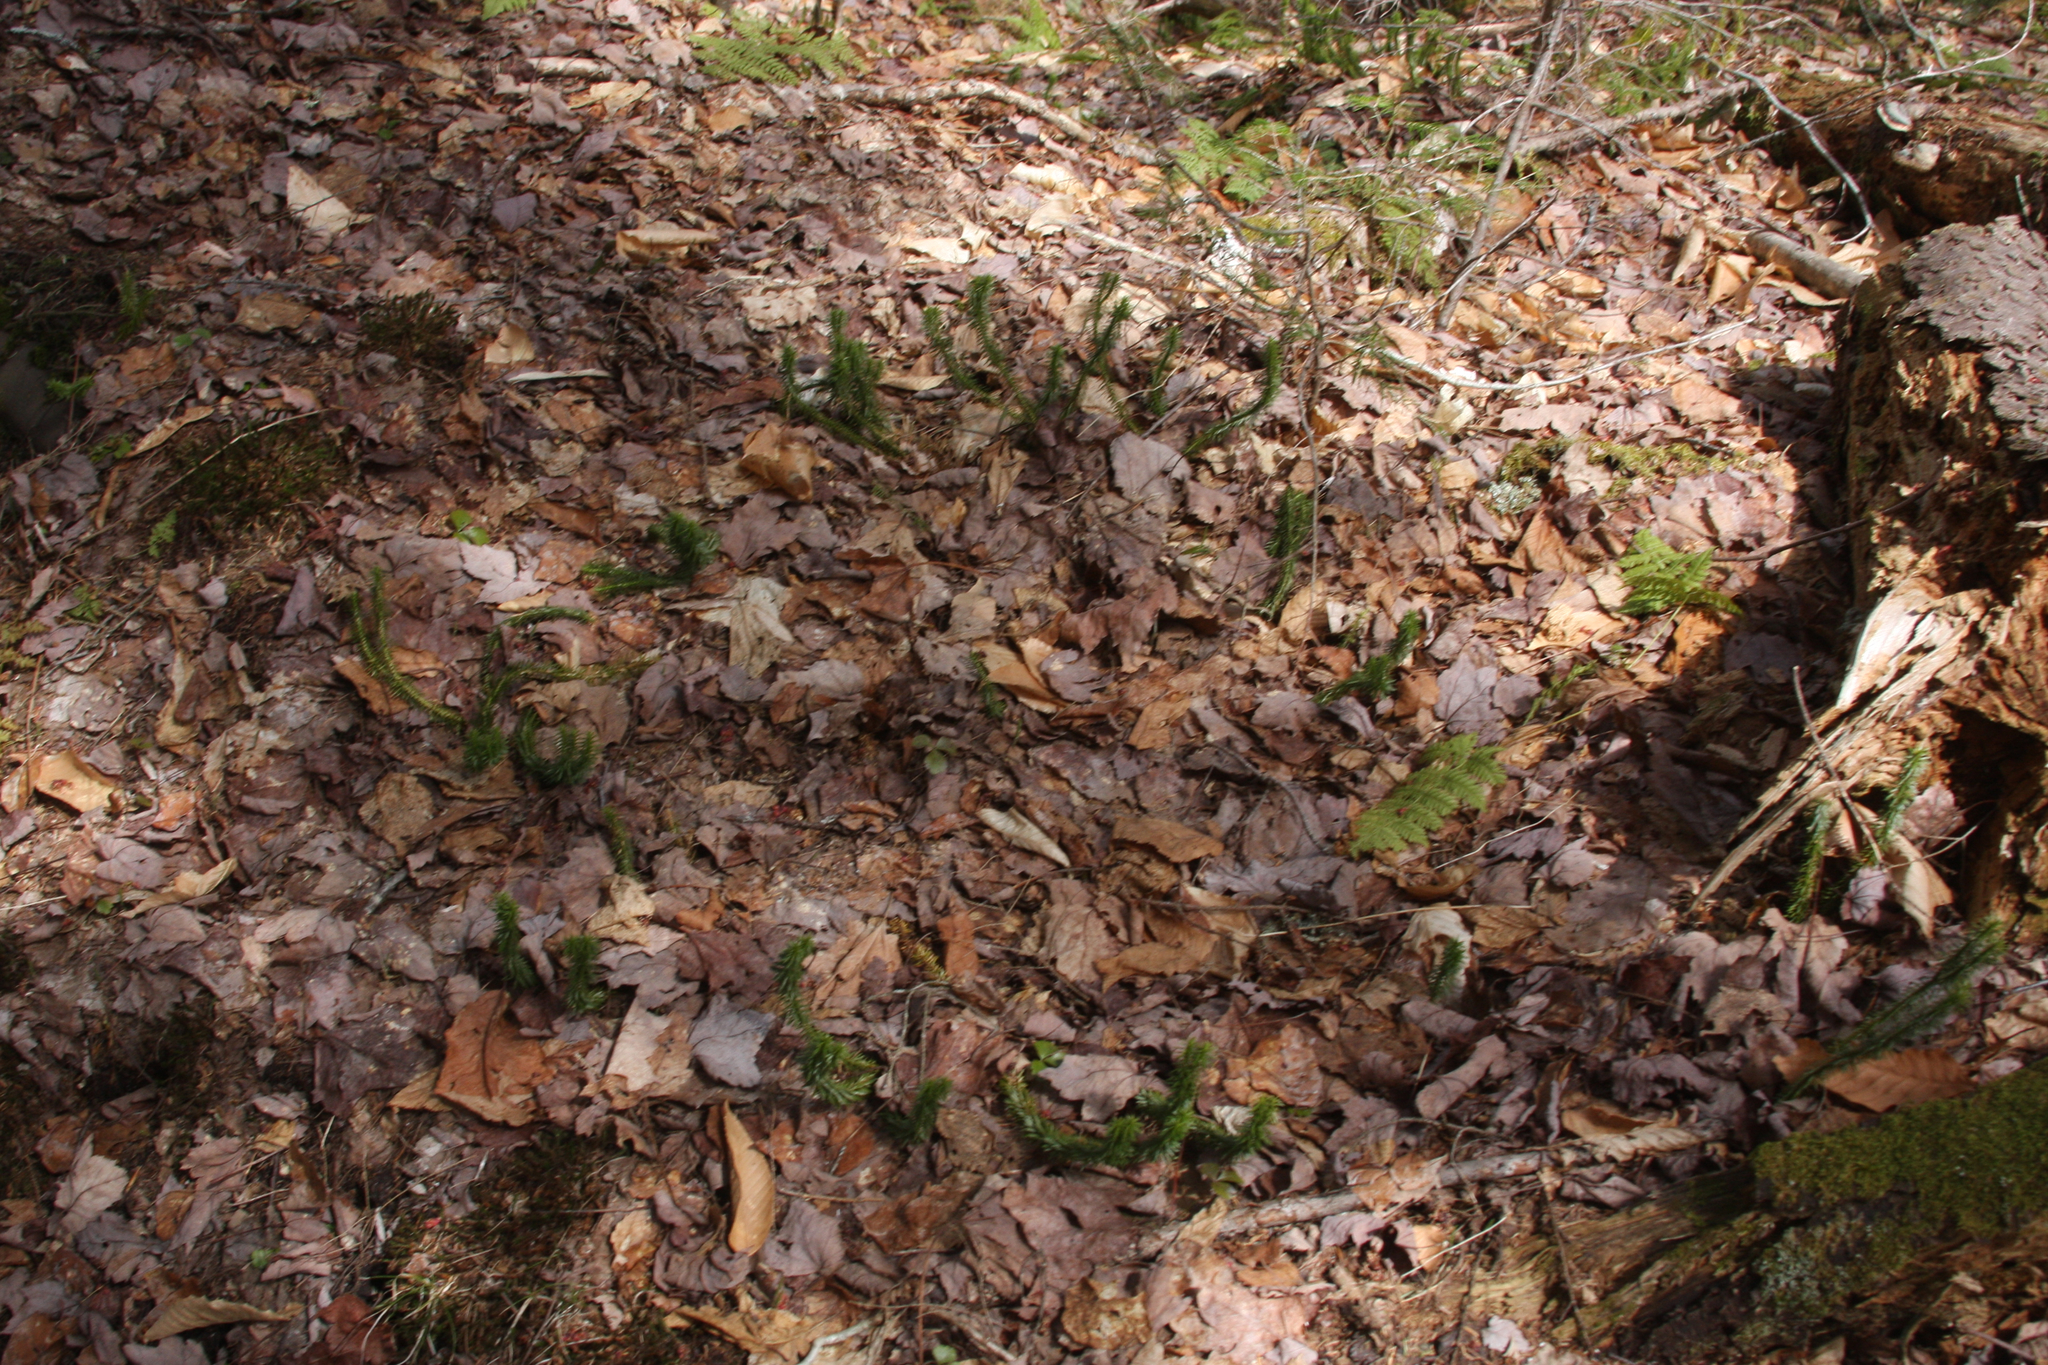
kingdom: Plantae
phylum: Tracheophyta
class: Lycopodiopsida
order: Lycopodiales
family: Lycopodiaceae
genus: Spinulum
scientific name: Spinulum annotinum
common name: Interrupted club-moss
